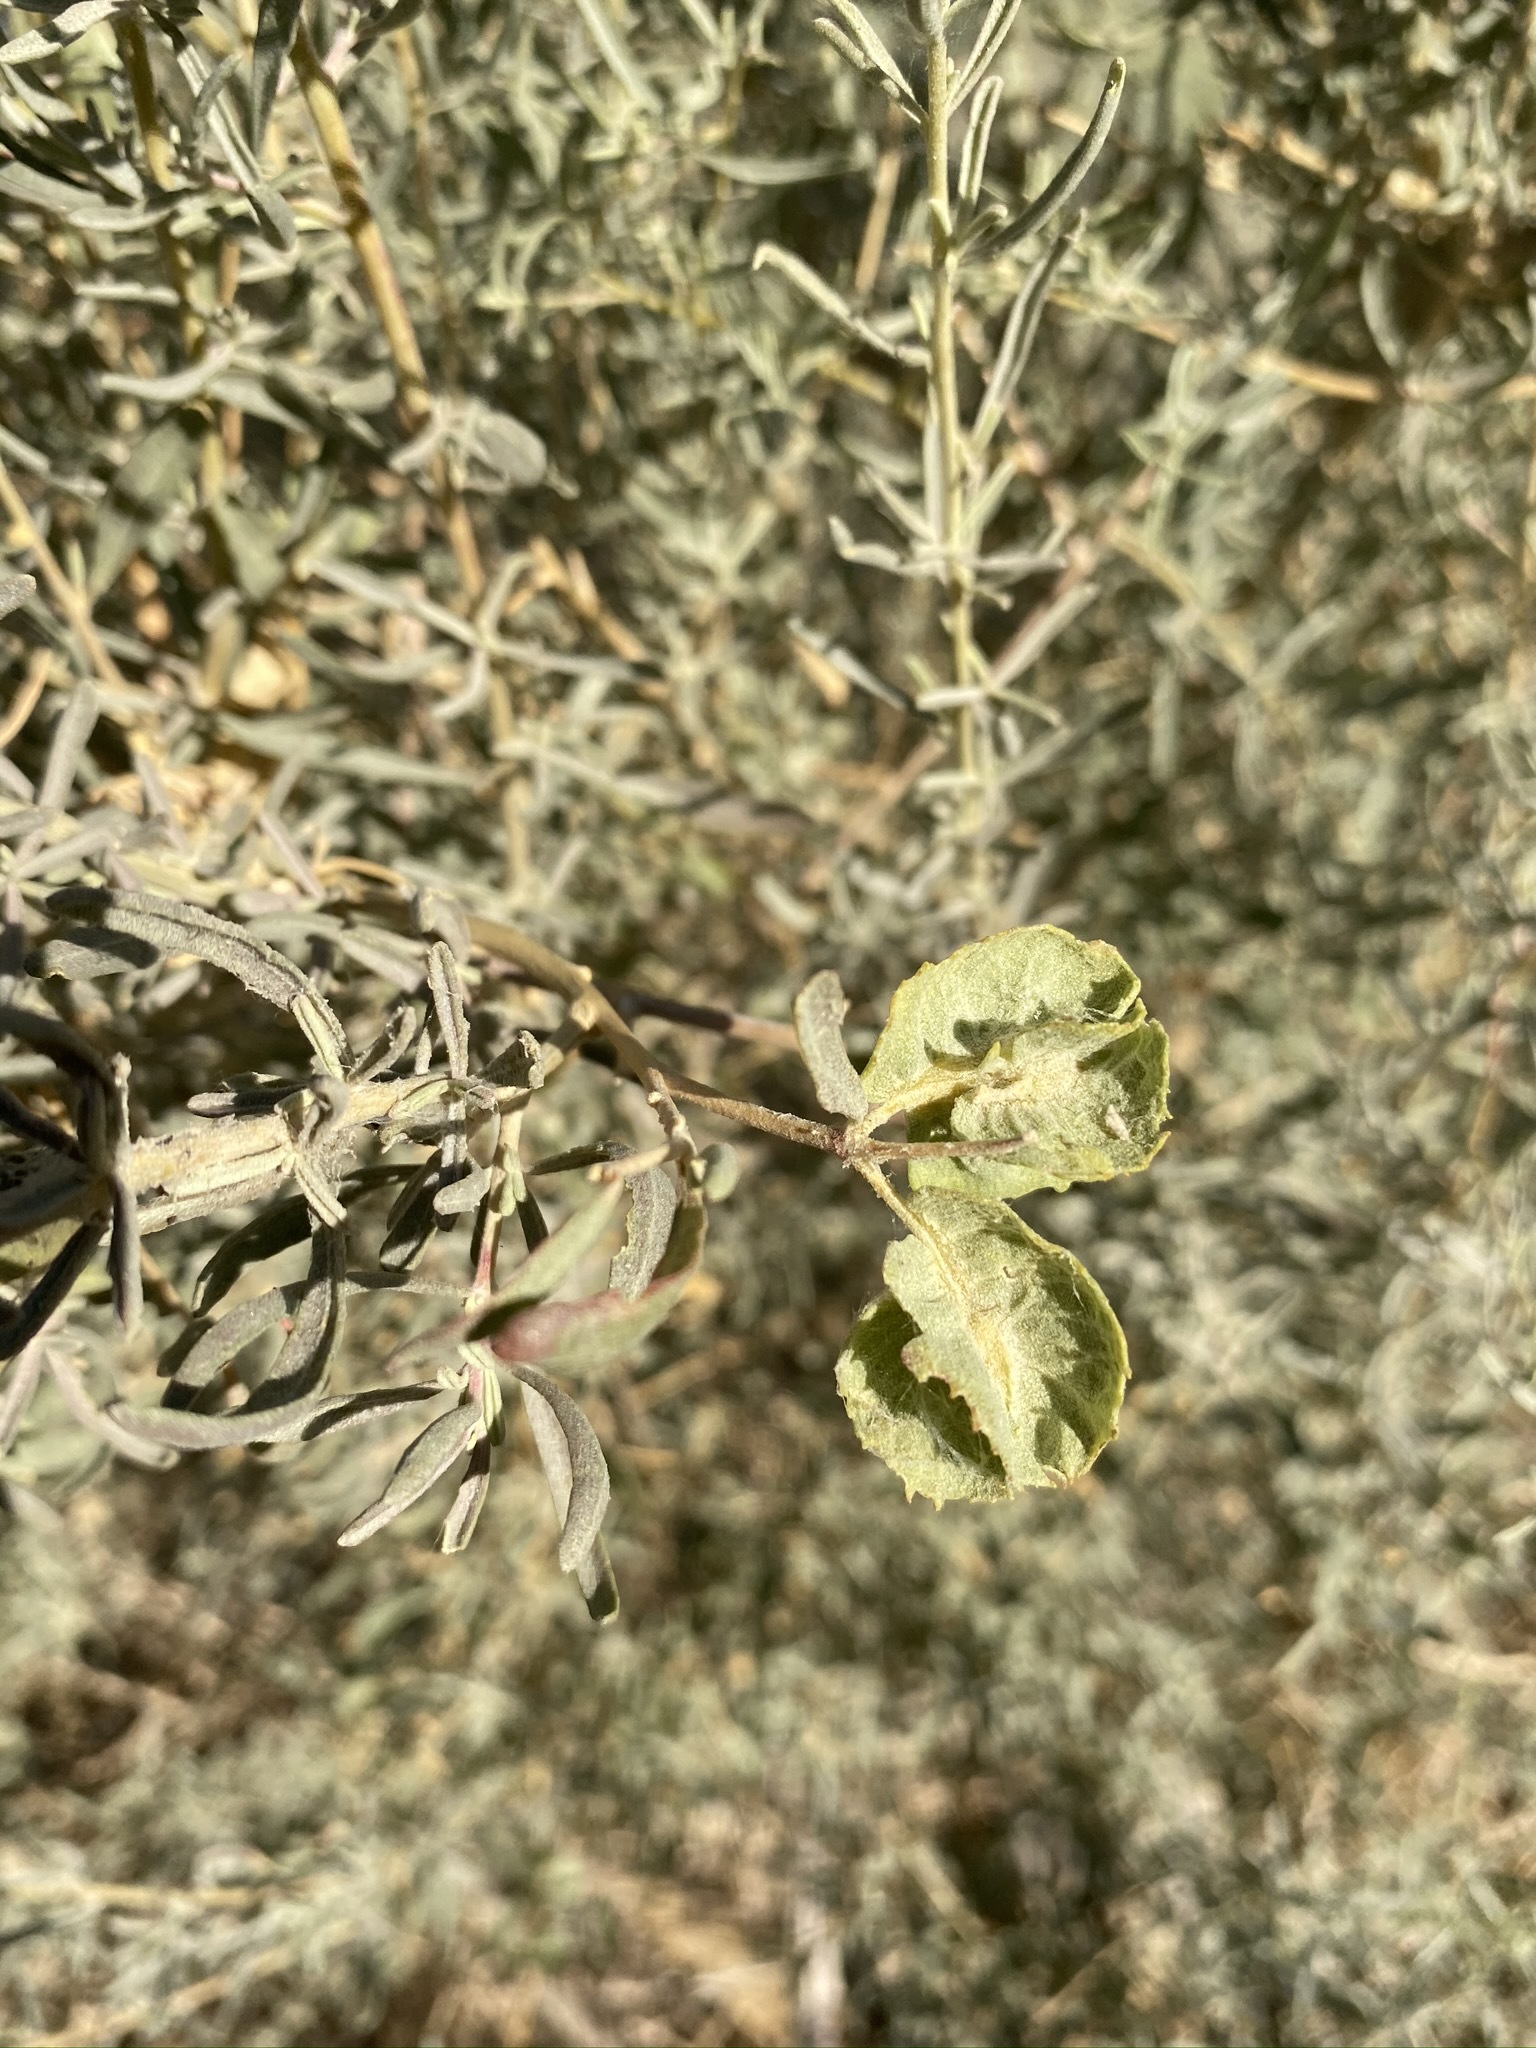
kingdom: Plantae
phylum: Tracheophyta
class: Magnoliopsida
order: Caryophyllales
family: Amaranthaceae
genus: Atriplex
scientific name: Atriplex canescens
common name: Four-wing saltbush
